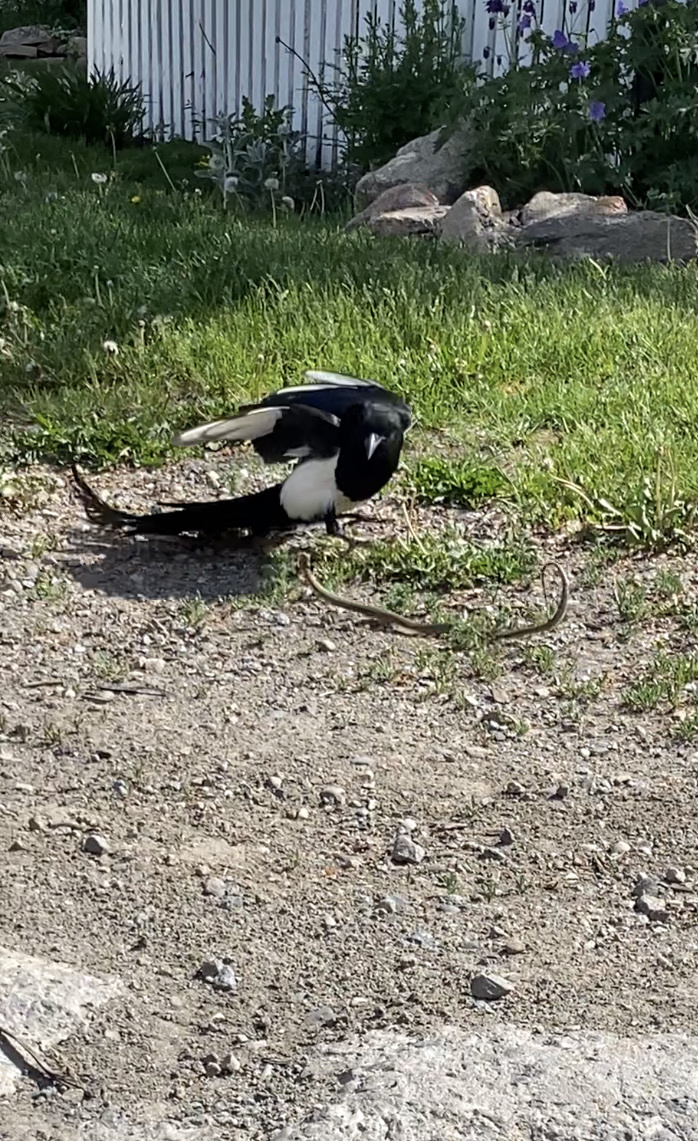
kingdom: Animalia
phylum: Chordata
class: Aves
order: Passeriformes
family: Corvidae
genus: Pica
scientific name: Pica hudsonia
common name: Black-billed magpie
